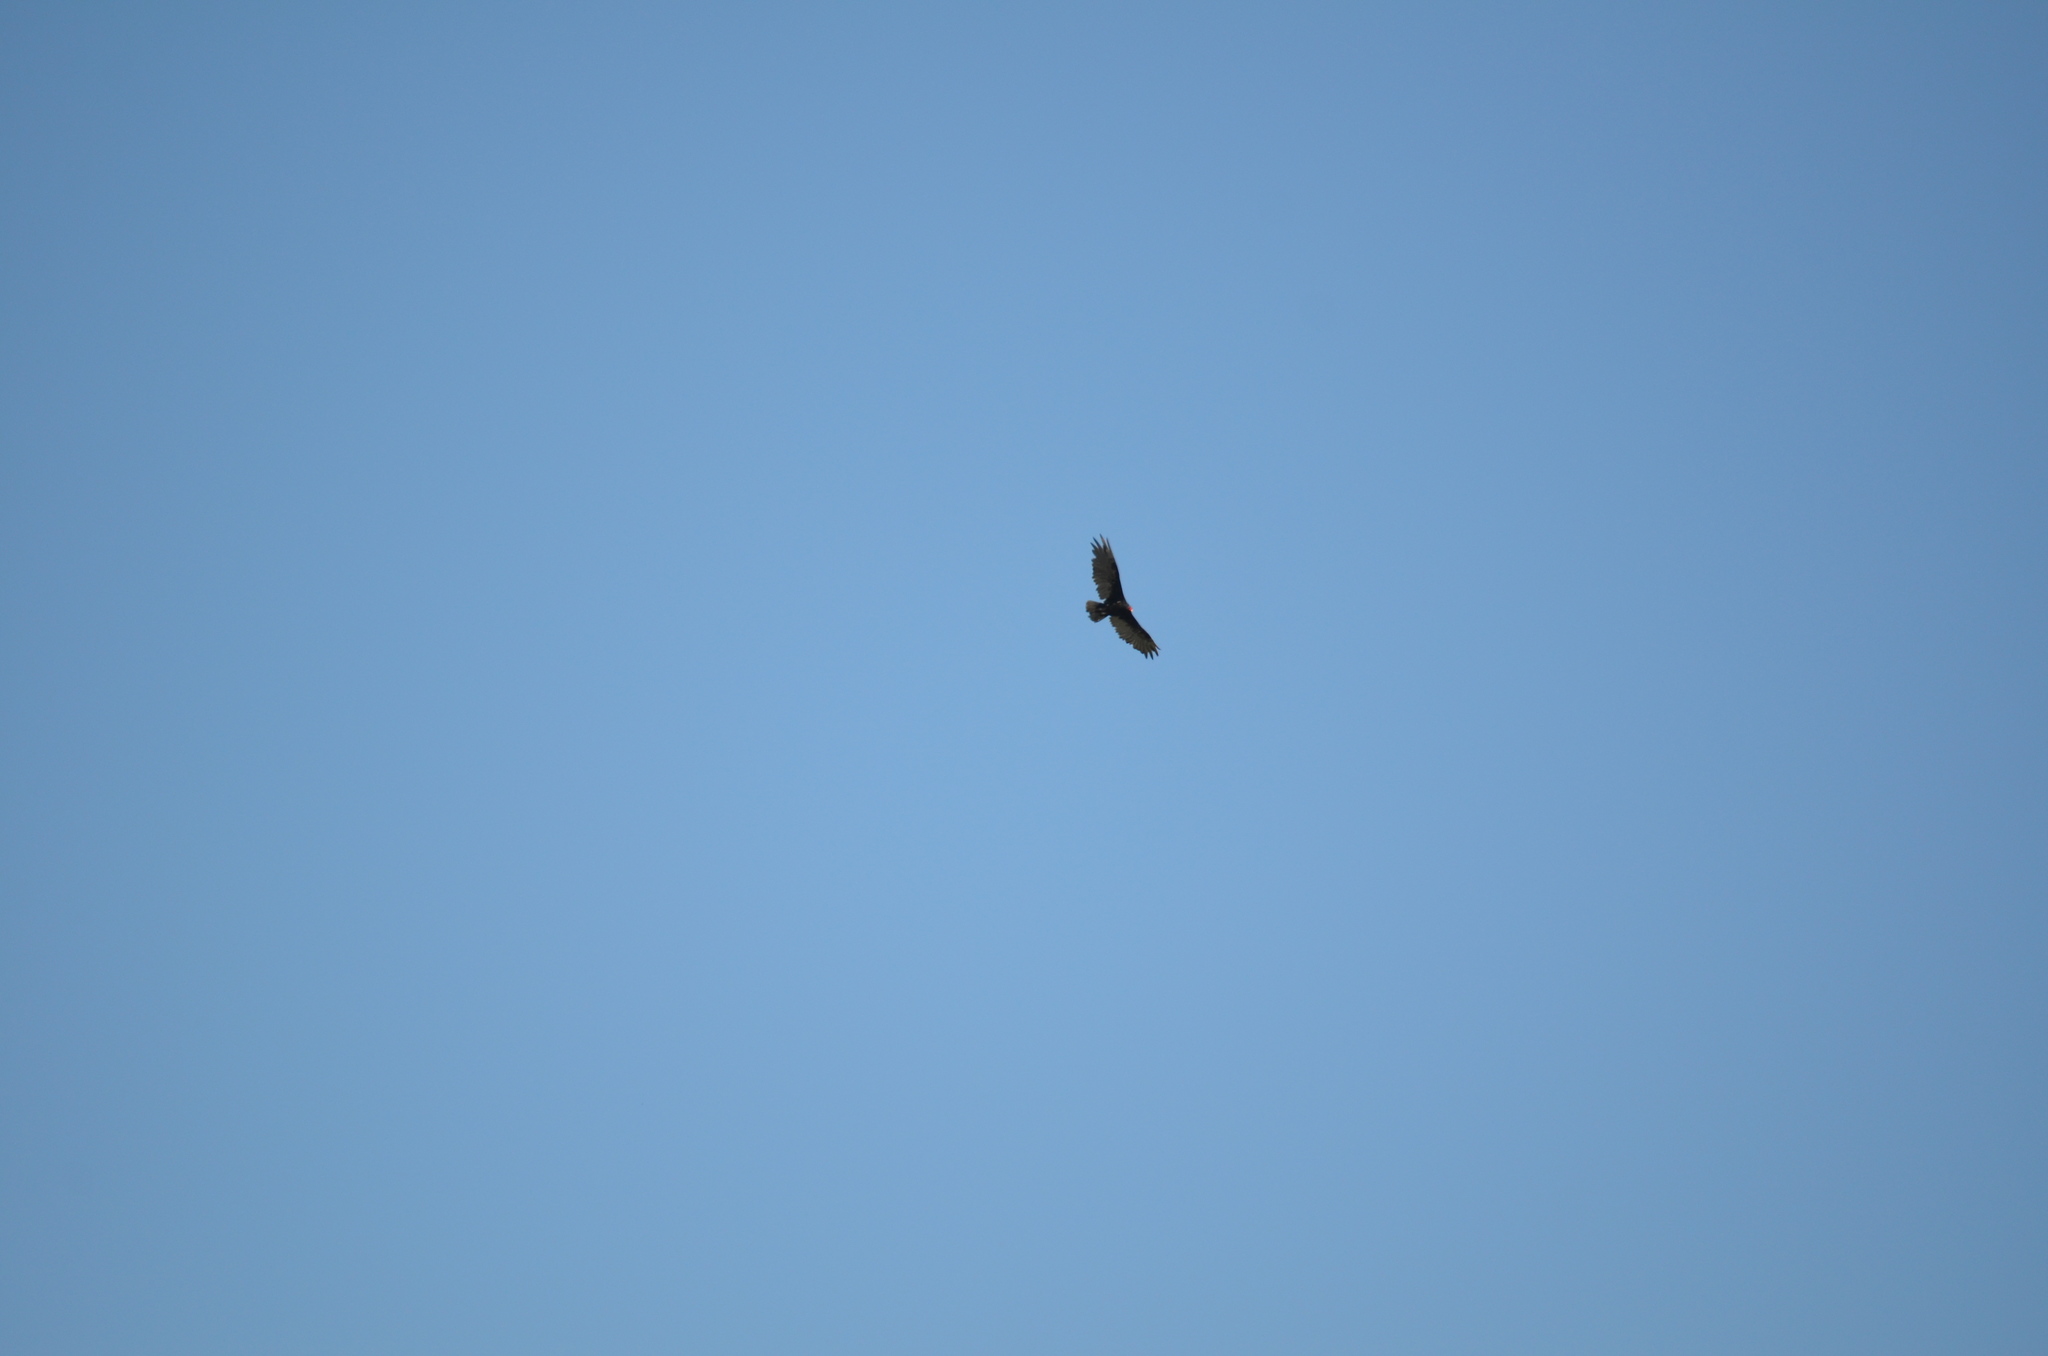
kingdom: Animalia
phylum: Chordata
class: Aves
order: Accipitriformes
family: Cathartidae
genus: Cathartes
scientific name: Cathartes aura
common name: Turkey vulture
